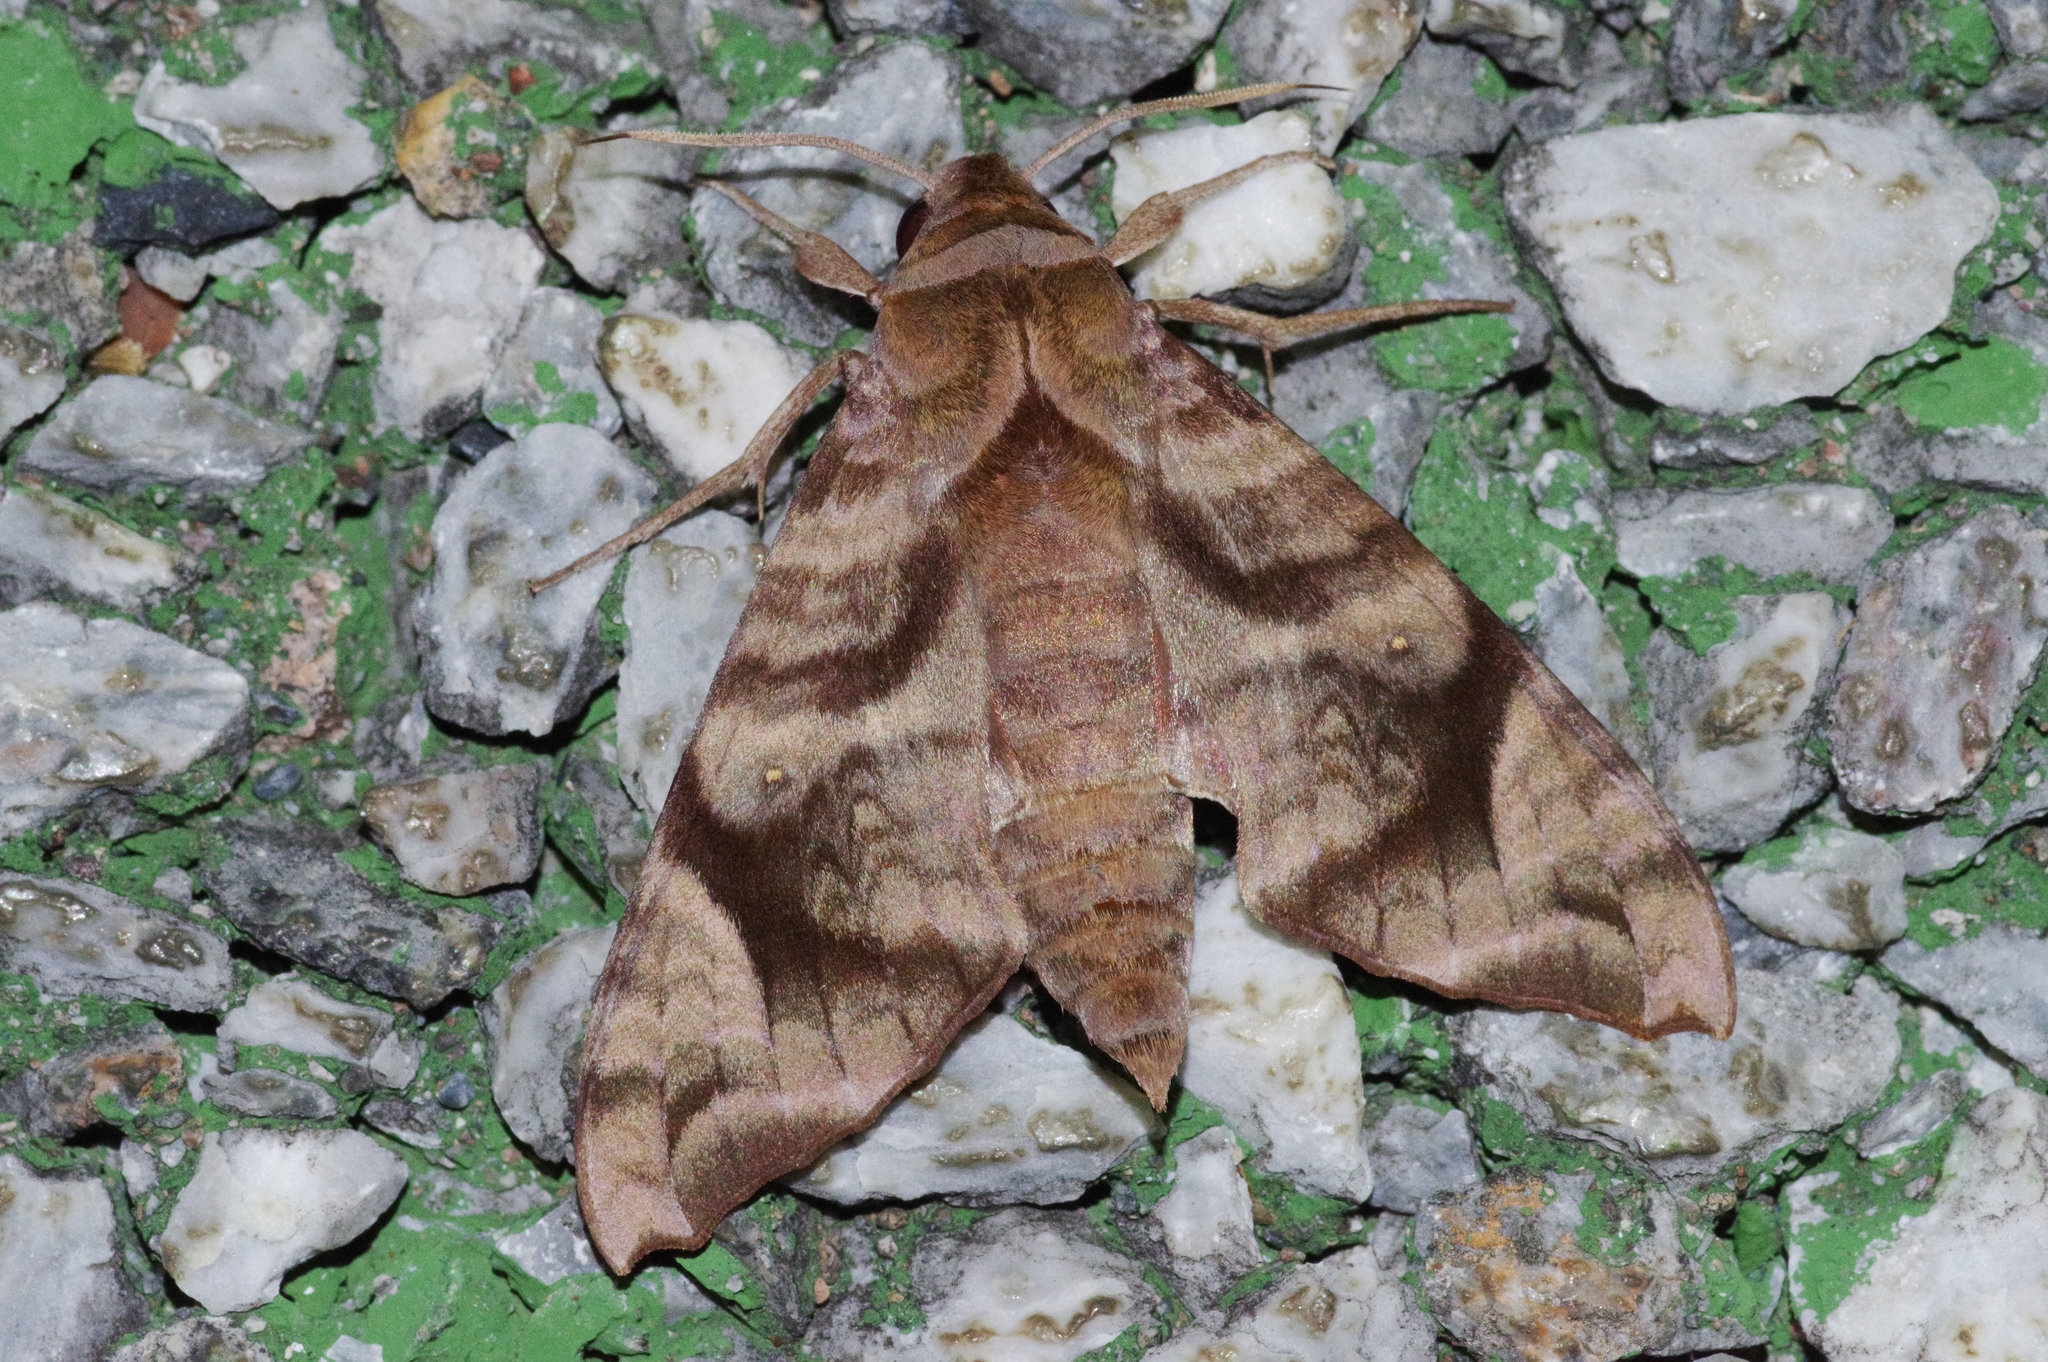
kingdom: Animalia
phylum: Arthropoda
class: Insecta
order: Lepidoptera
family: Sphingidae
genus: Acosmeryx
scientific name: Acosmeryx castanea
